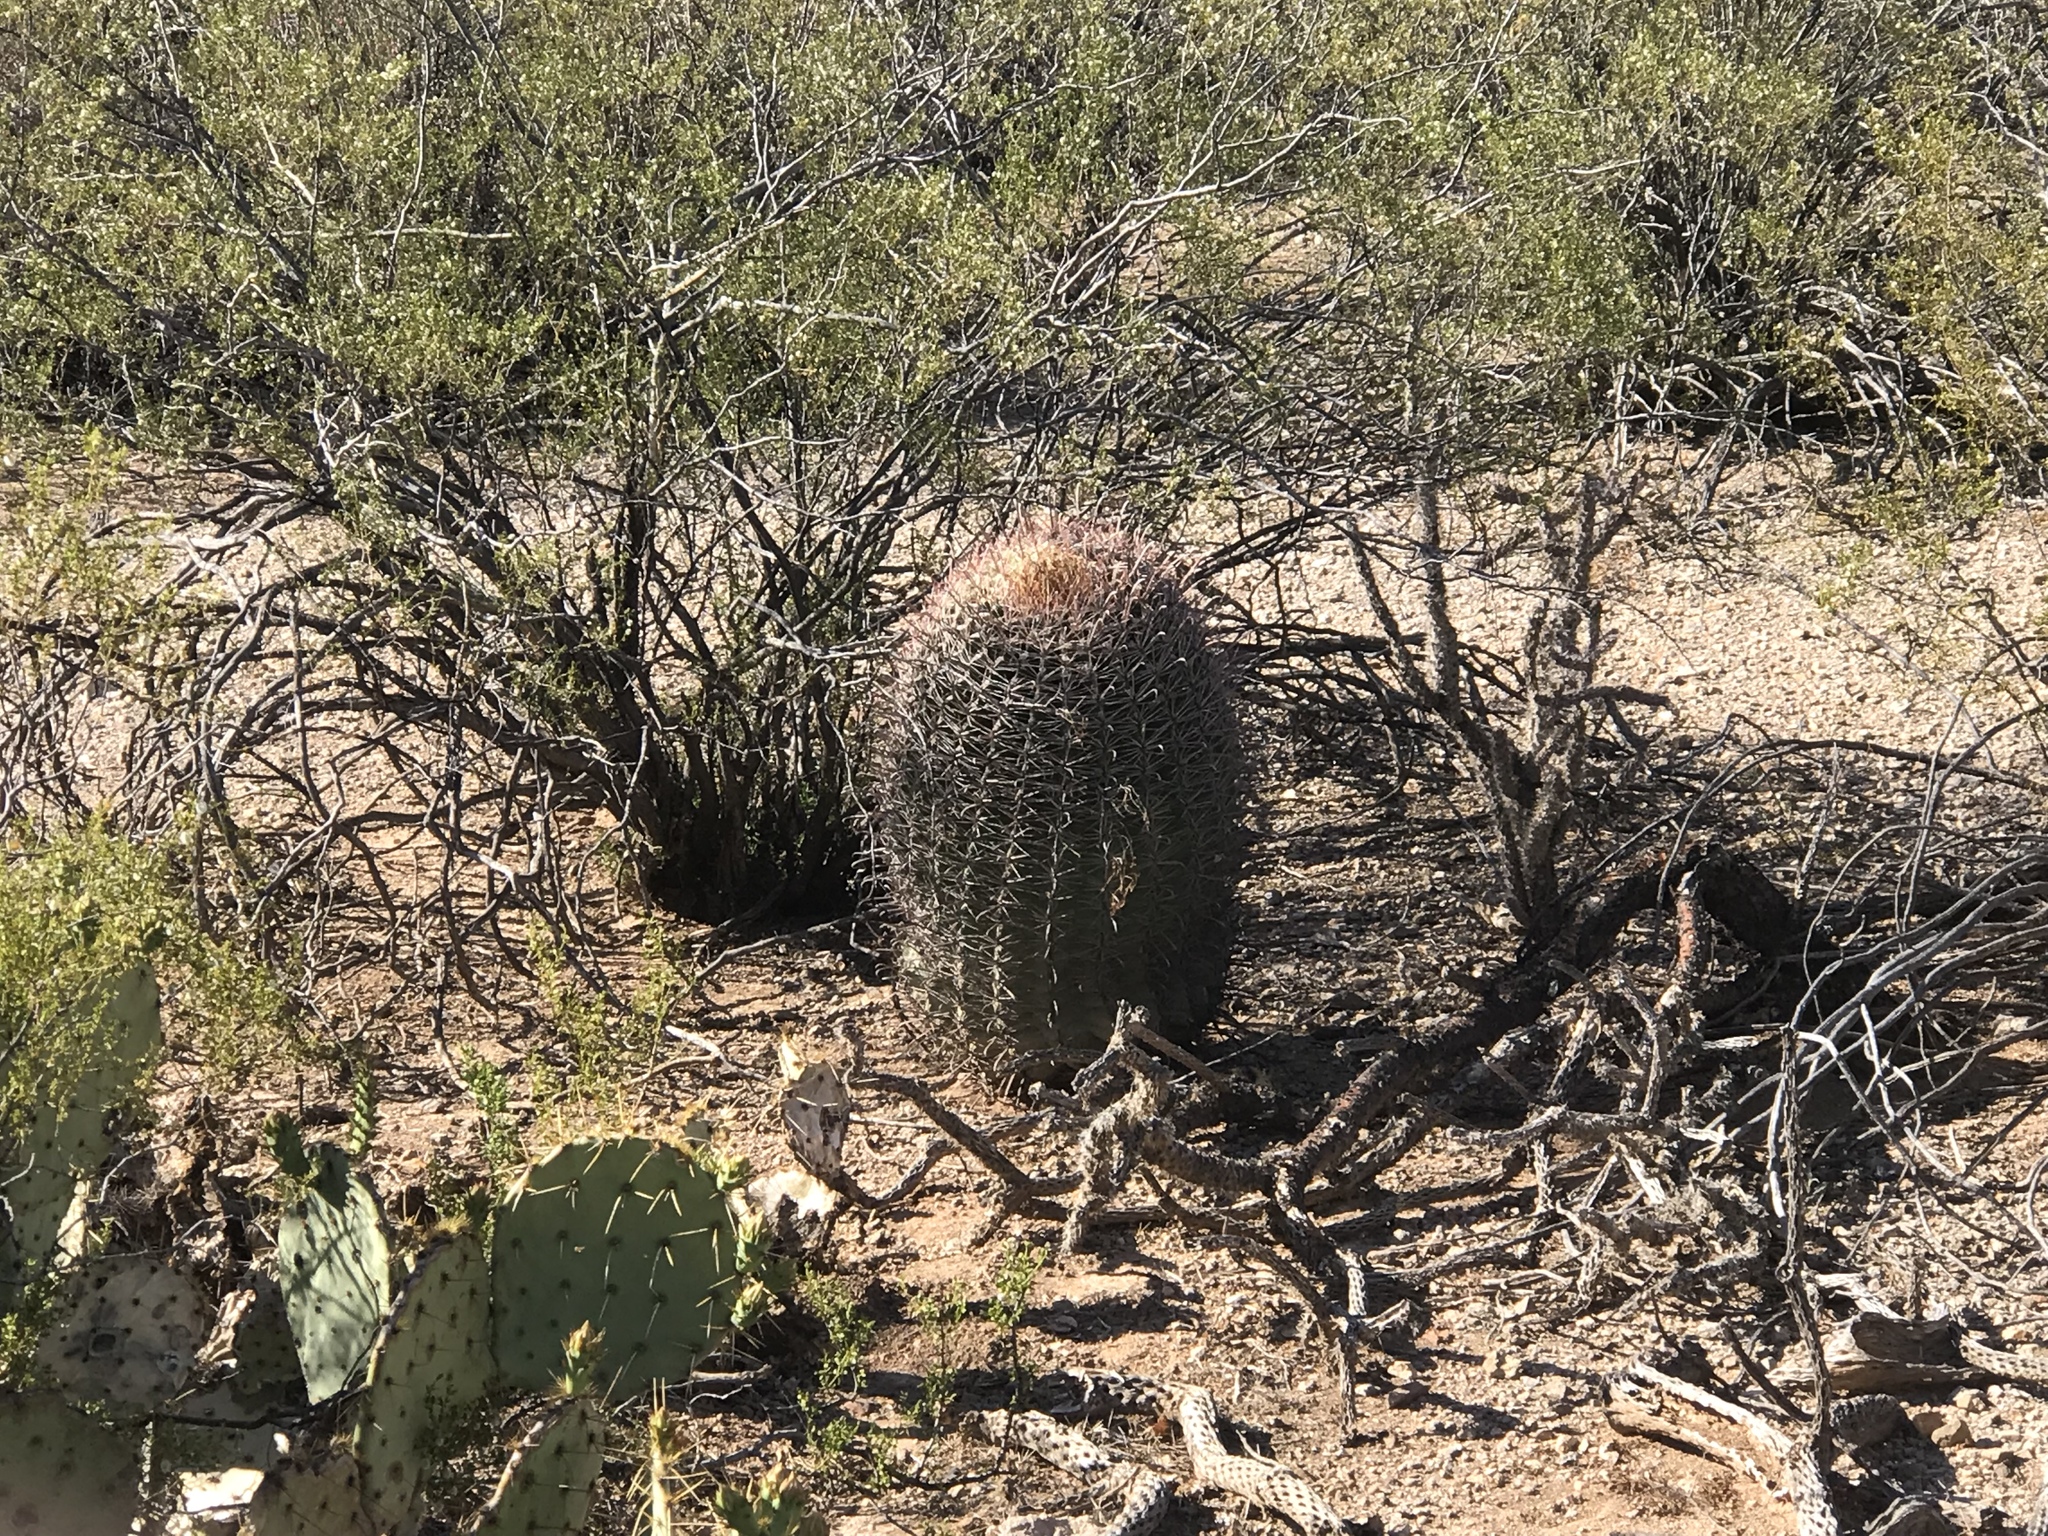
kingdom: Plantae
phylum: Tracheophyta
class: Magnoliopsida
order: Caryophyllales
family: Cactaceae
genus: Ferocactus
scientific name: Ferocactus wislizeni
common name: Candy barrel cactus
